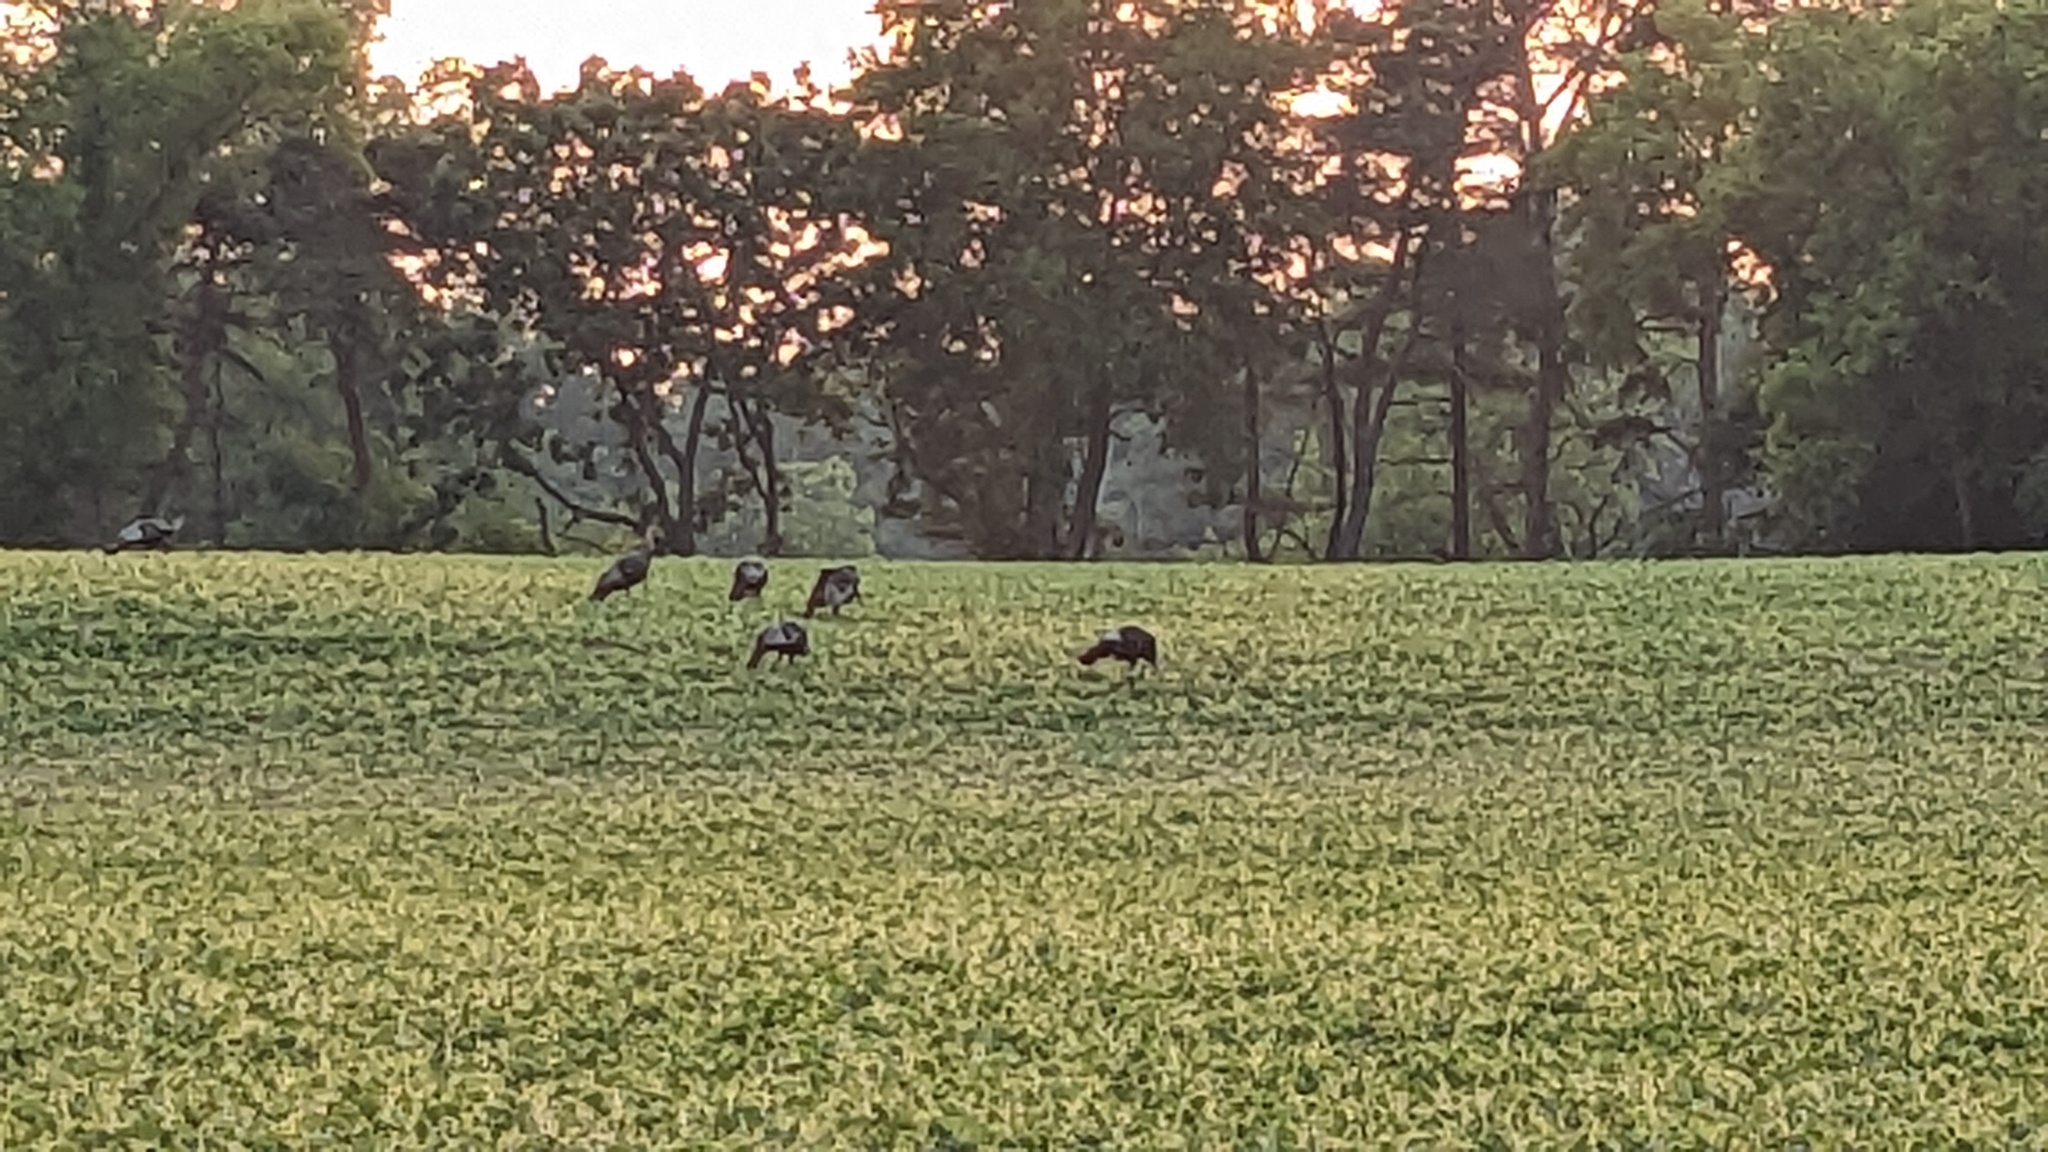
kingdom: Animalia
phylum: Chordata
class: Aves
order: Galliformes
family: Phasianidae
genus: Meleagris
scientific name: Meleagris gallopavo
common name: Wild turkey
